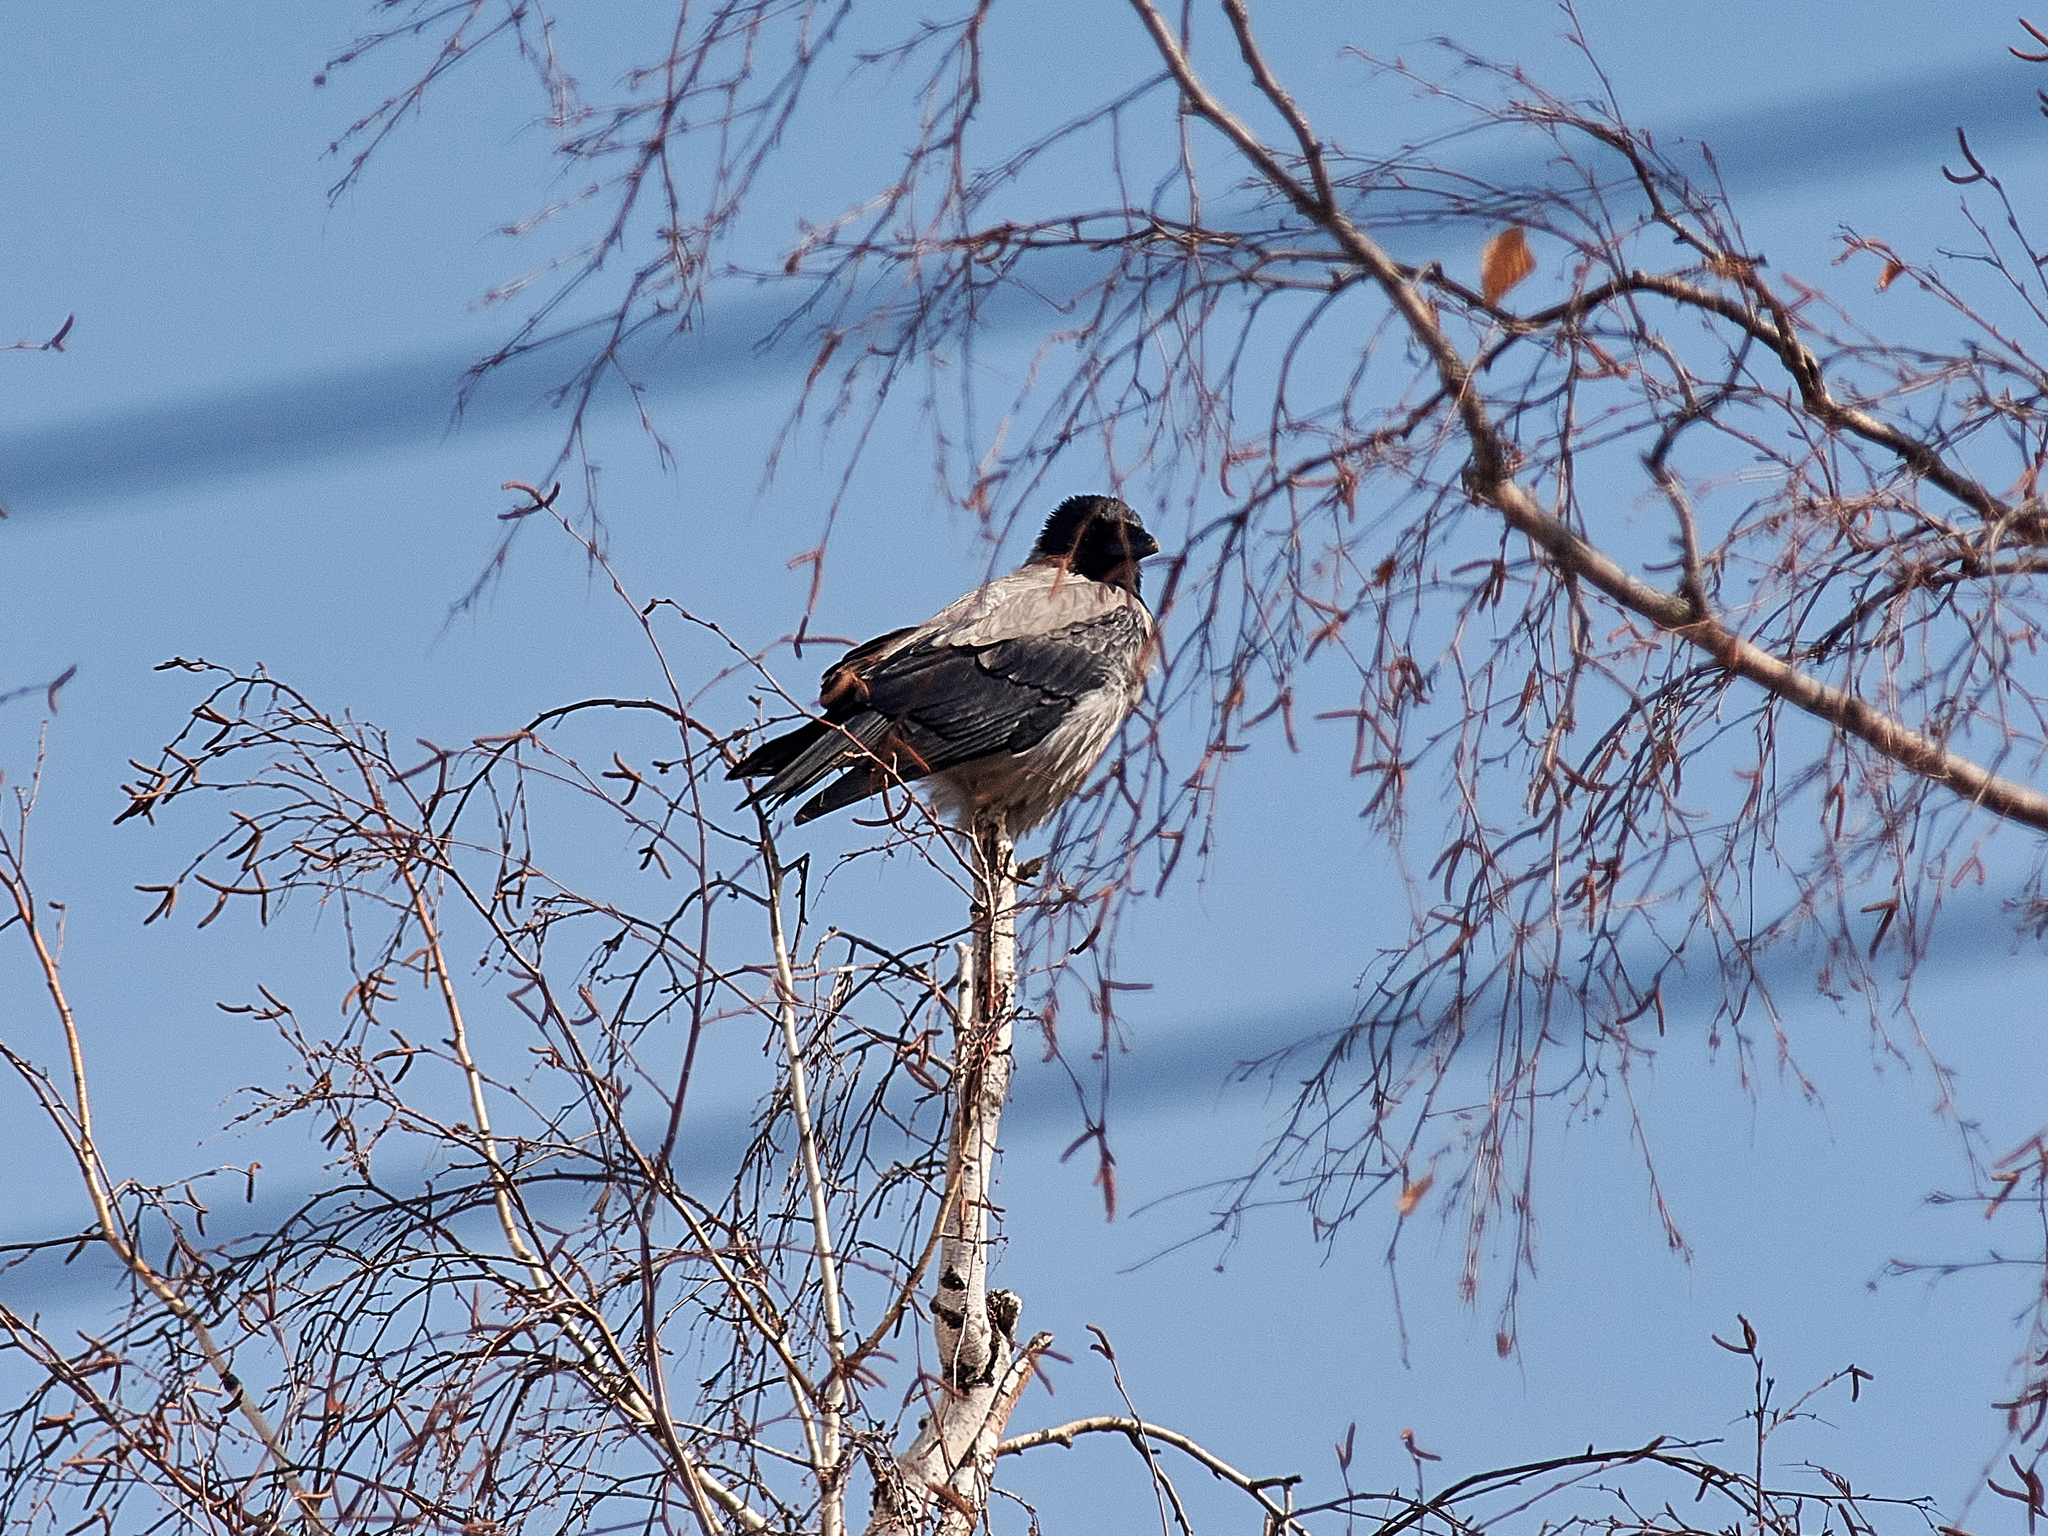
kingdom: Animalia
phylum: Chordata
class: Aves
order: Passeriformes
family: Corvidae
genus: Corvus
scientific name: Corvus cornix
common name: Hooded crow
